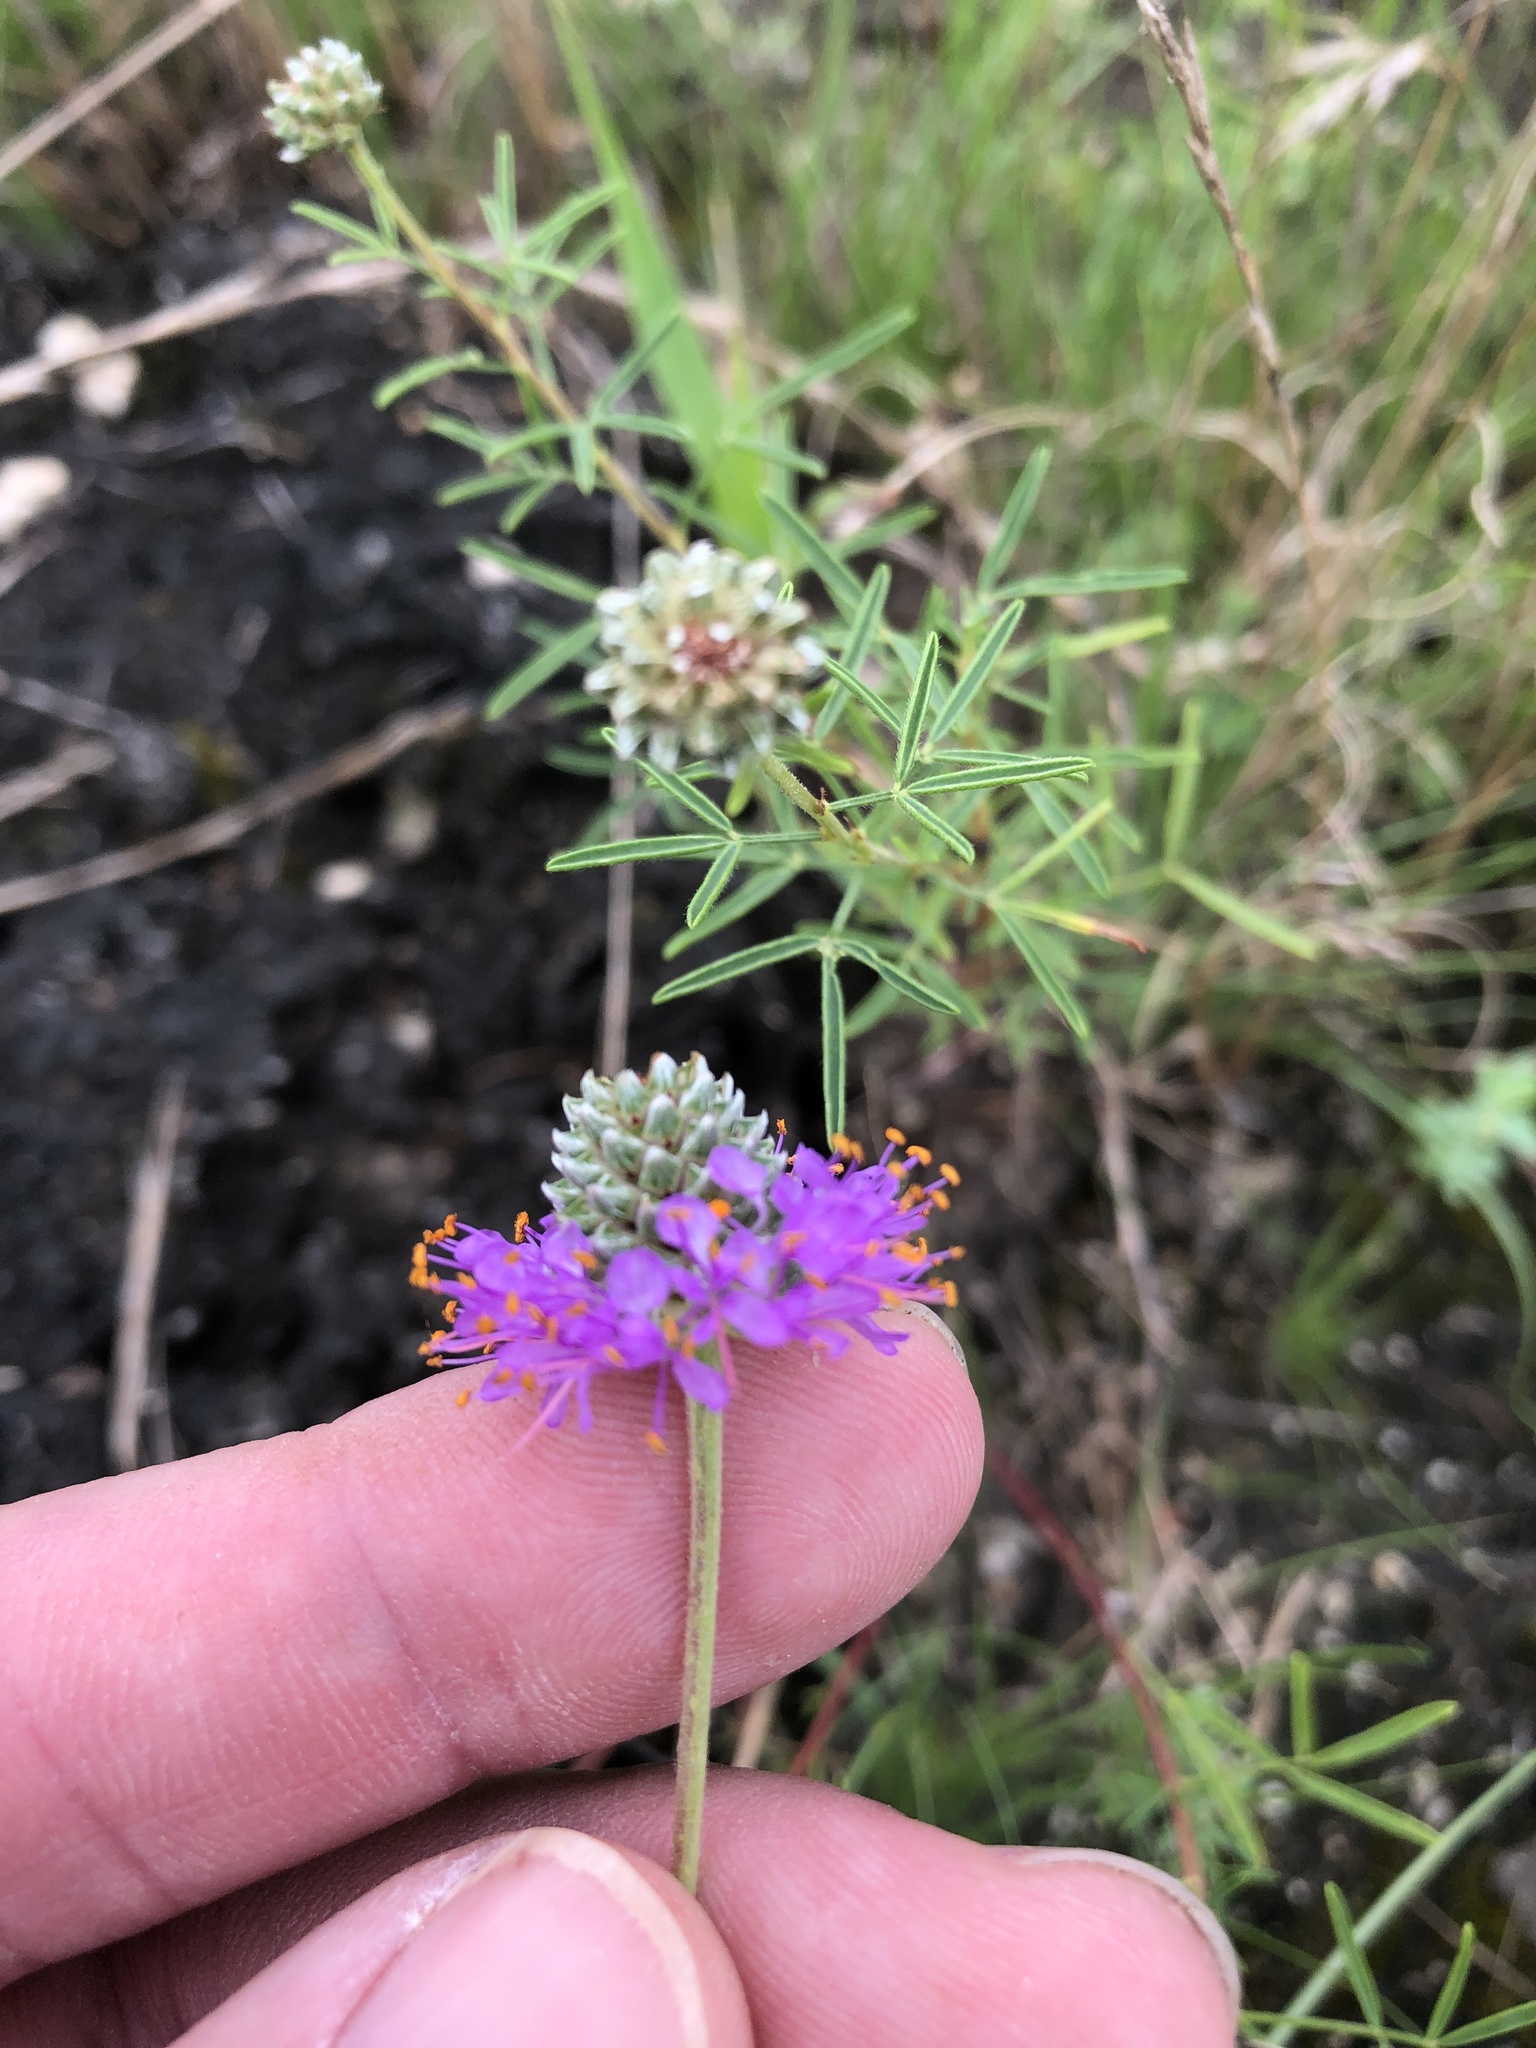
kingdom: Plantae
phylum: Tracheophyta
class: Magnoliopsida
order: Fabales
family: Fabaceae
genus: Dalea
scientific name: Dalea compacta
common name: Compact prairie-clover
